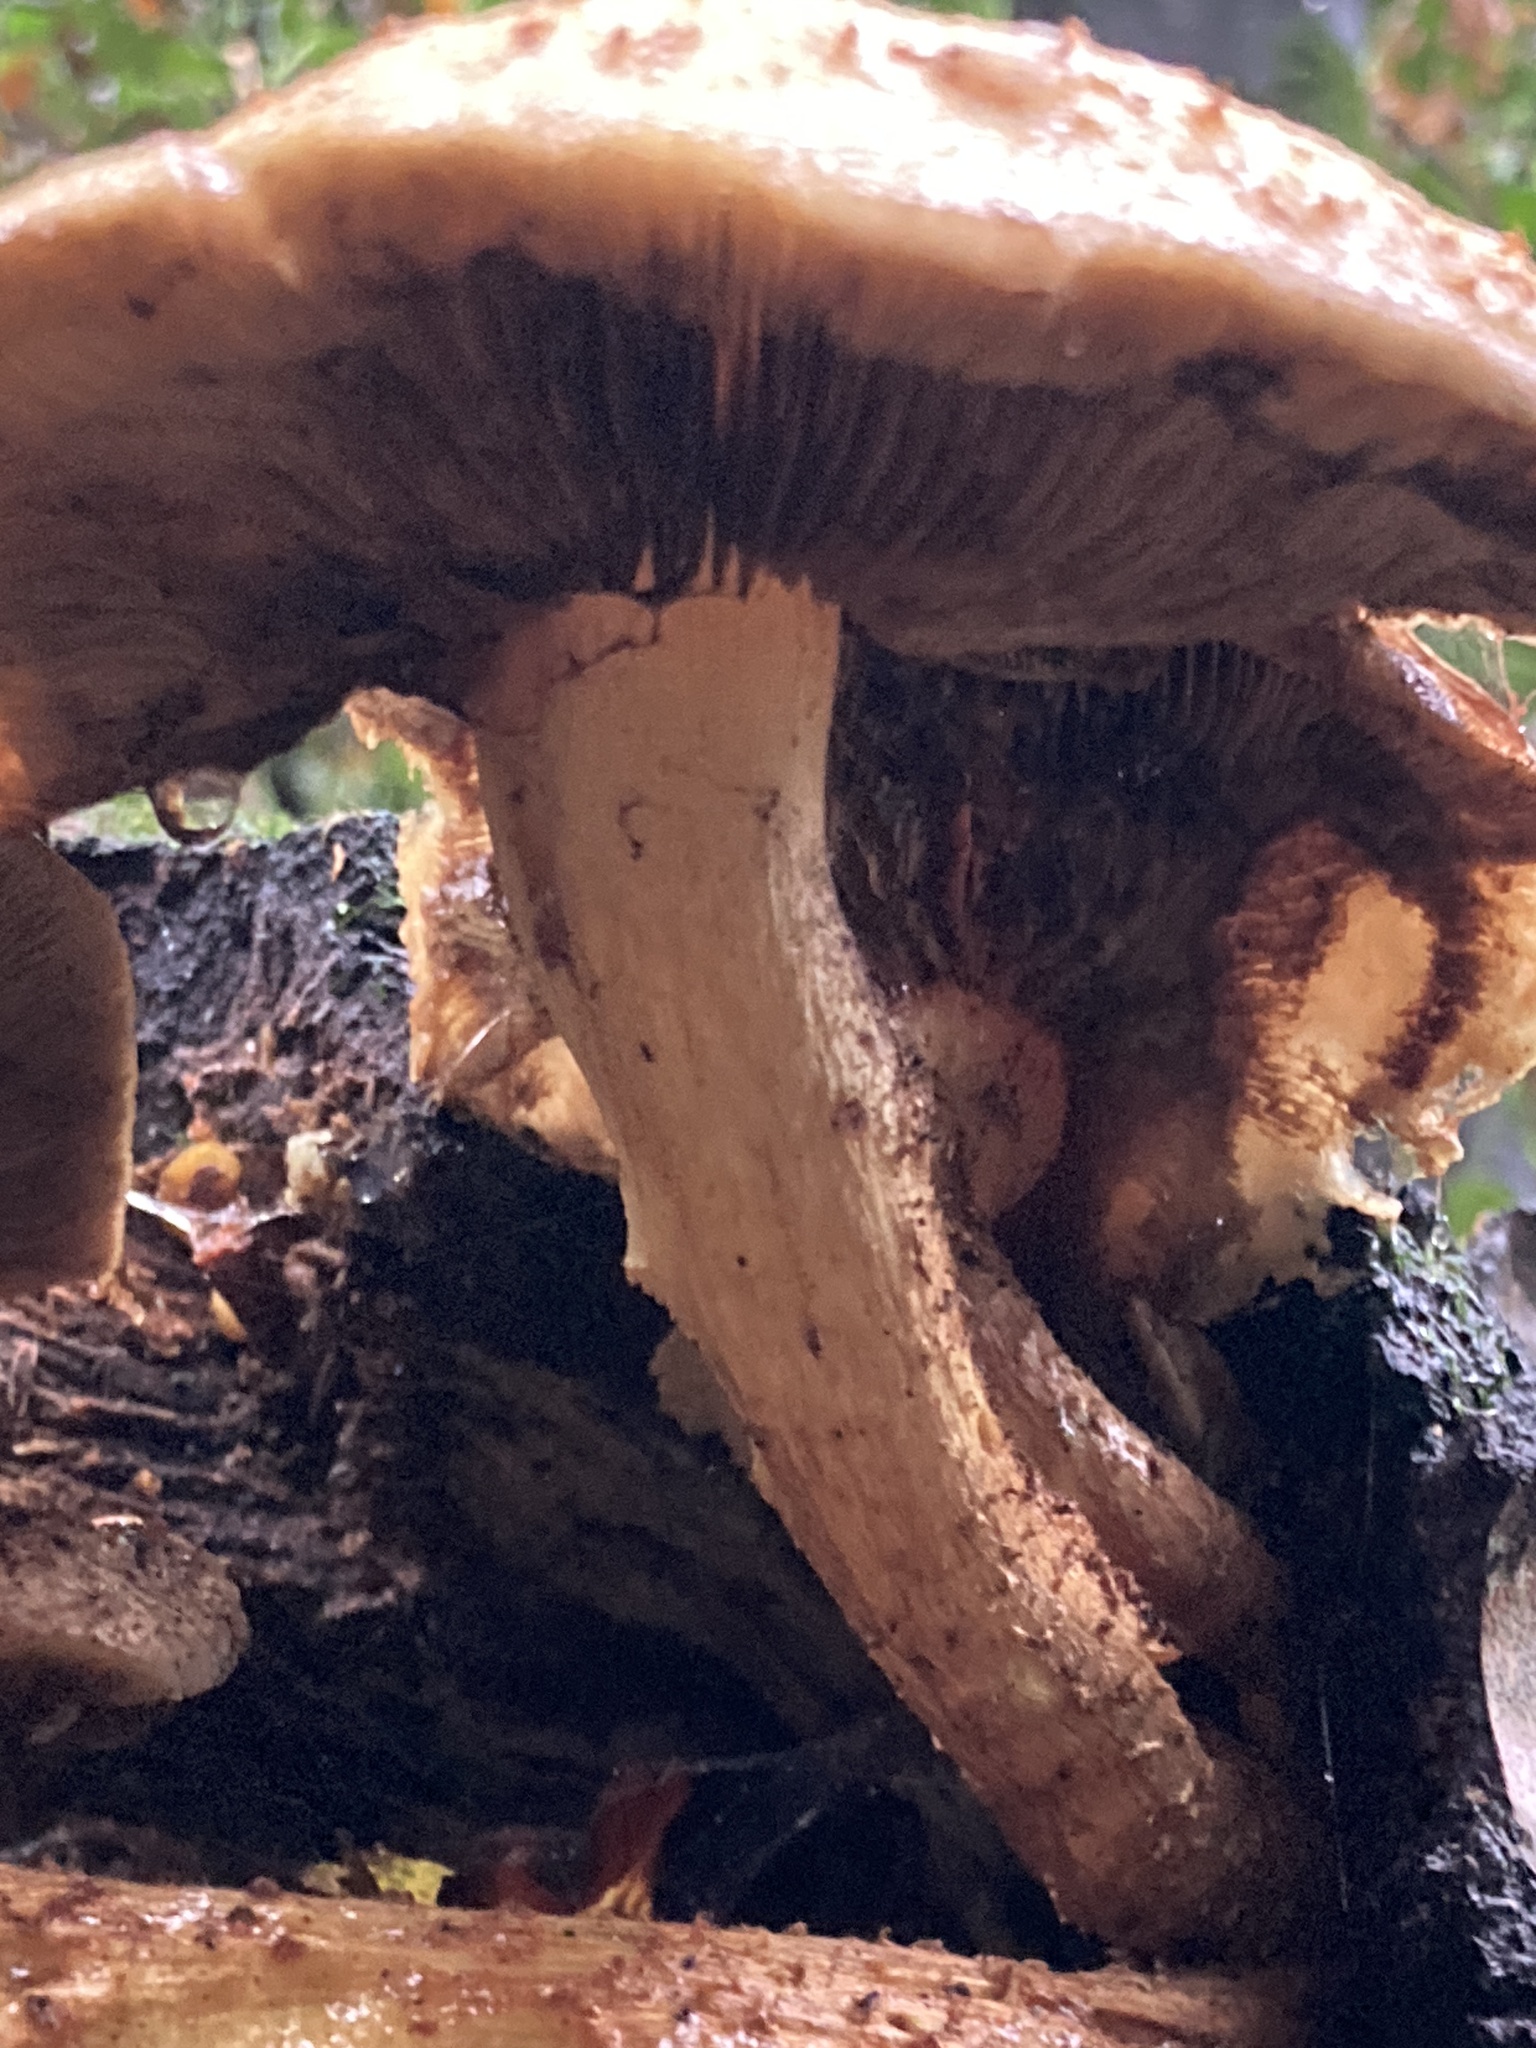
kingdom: Fungi
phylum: Basidiomycota
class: Agaricomycetes
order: Agaricales
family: Strophariaceae
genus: Pholiota
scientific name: Pholiota squarrosa
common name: Shaggy pholiota
